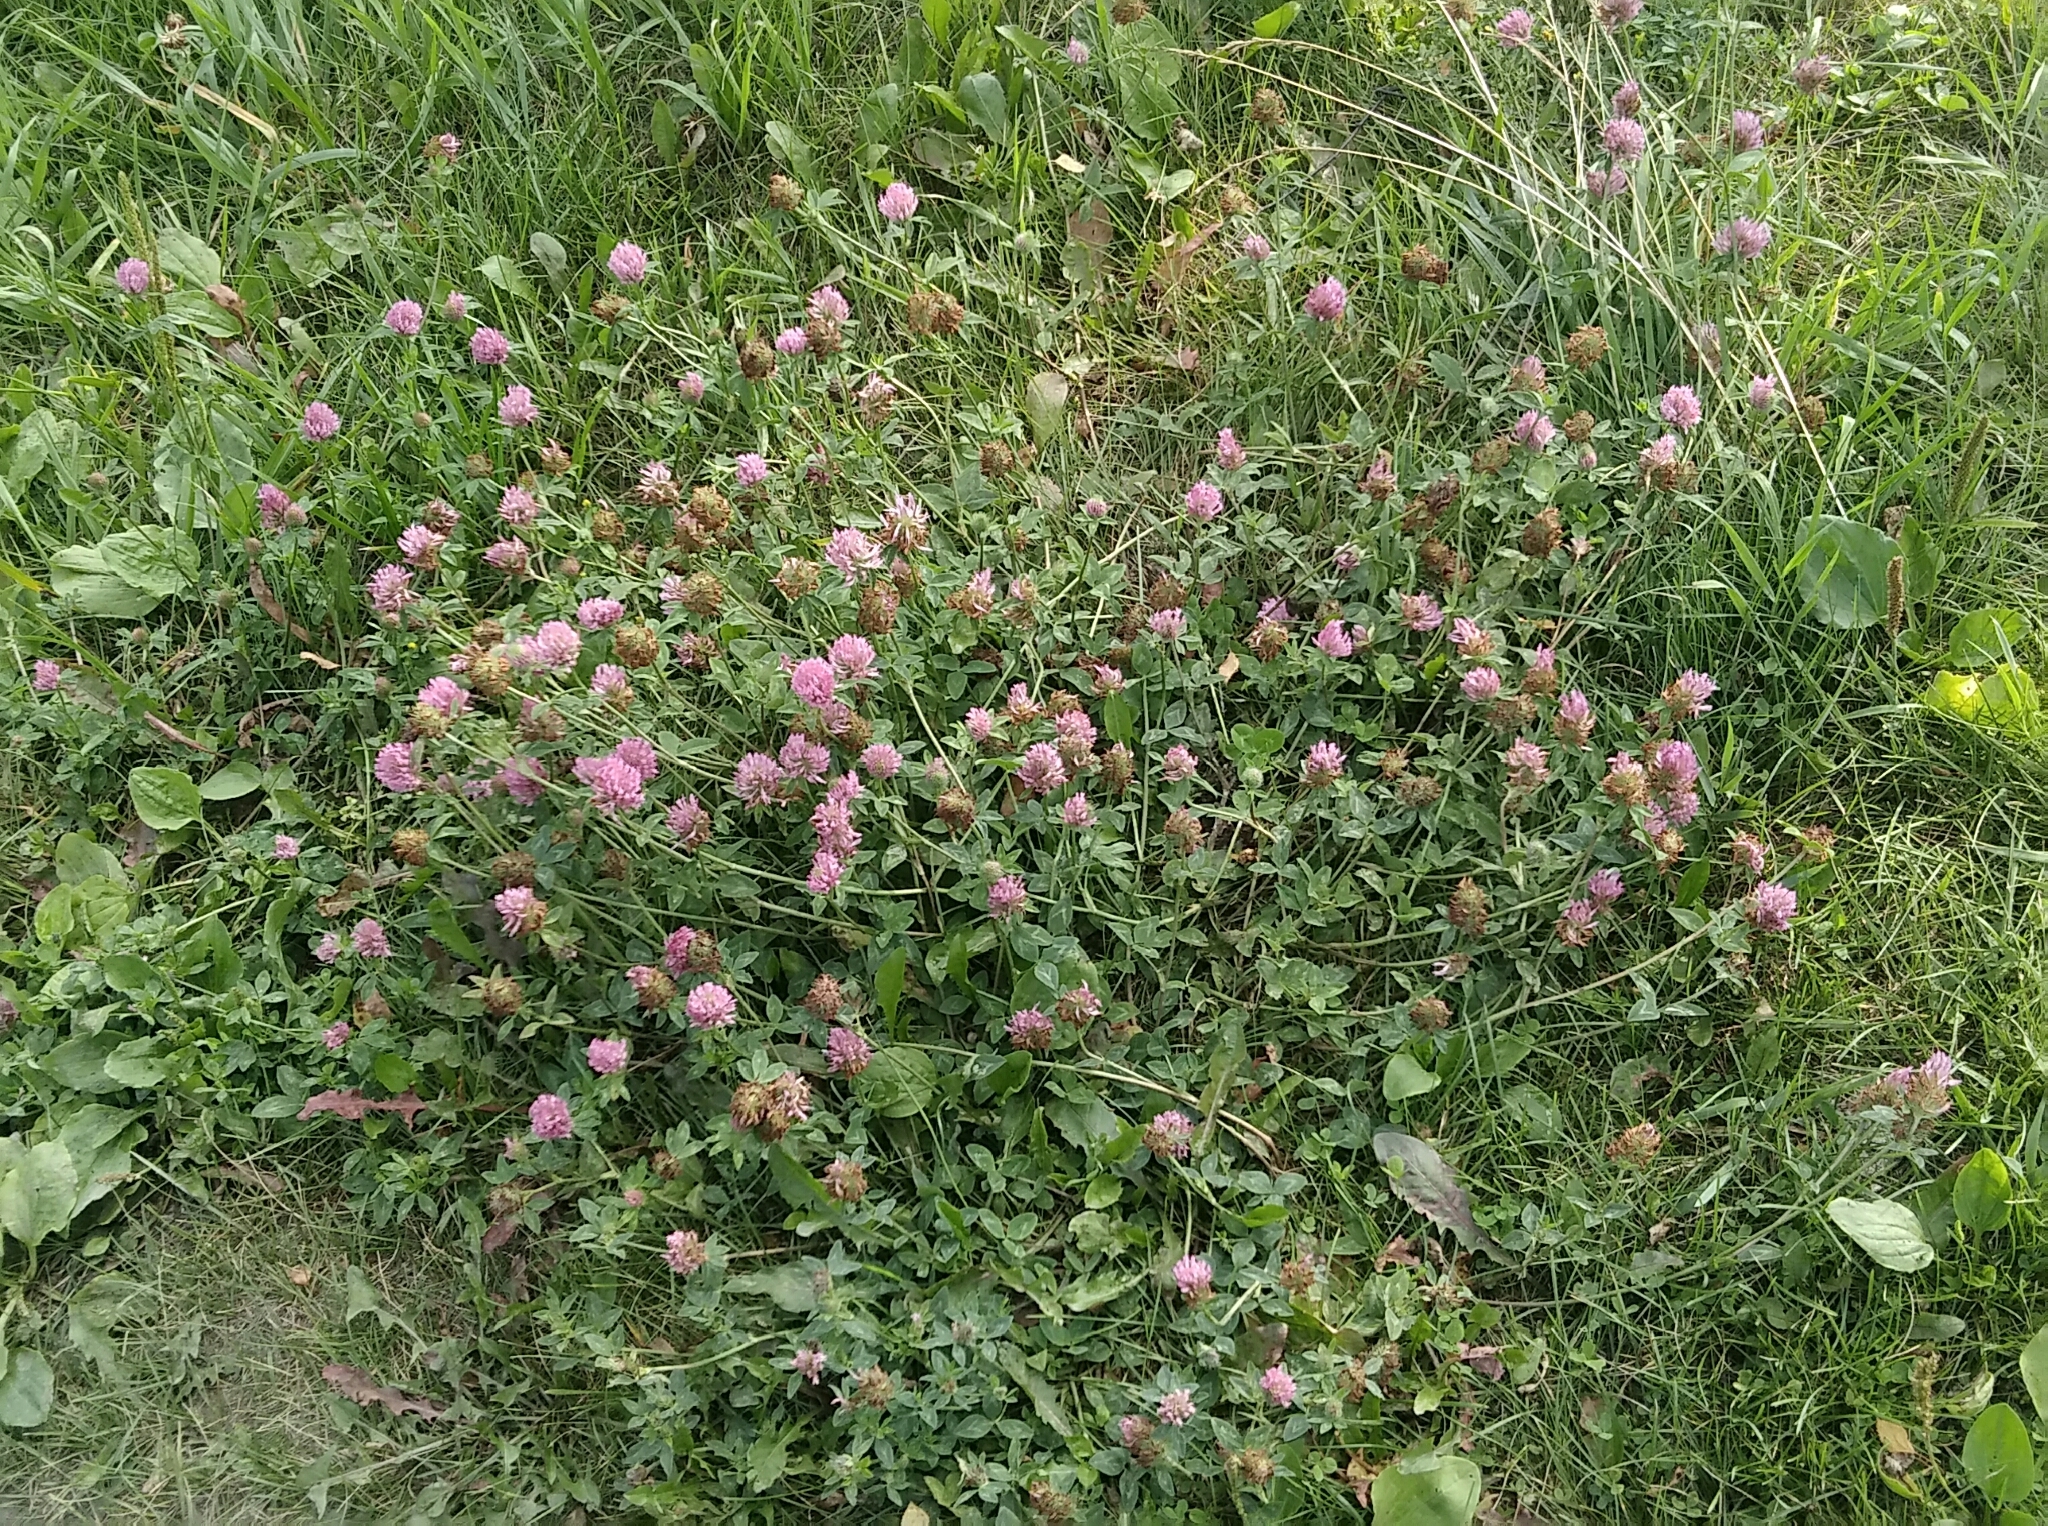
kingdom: Plantae
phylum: Tracheophyta
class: Magnoliopsida
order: Fabales
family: Fabaceae
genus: Trifolium
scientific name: Trifolium pratense
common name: Red clover
